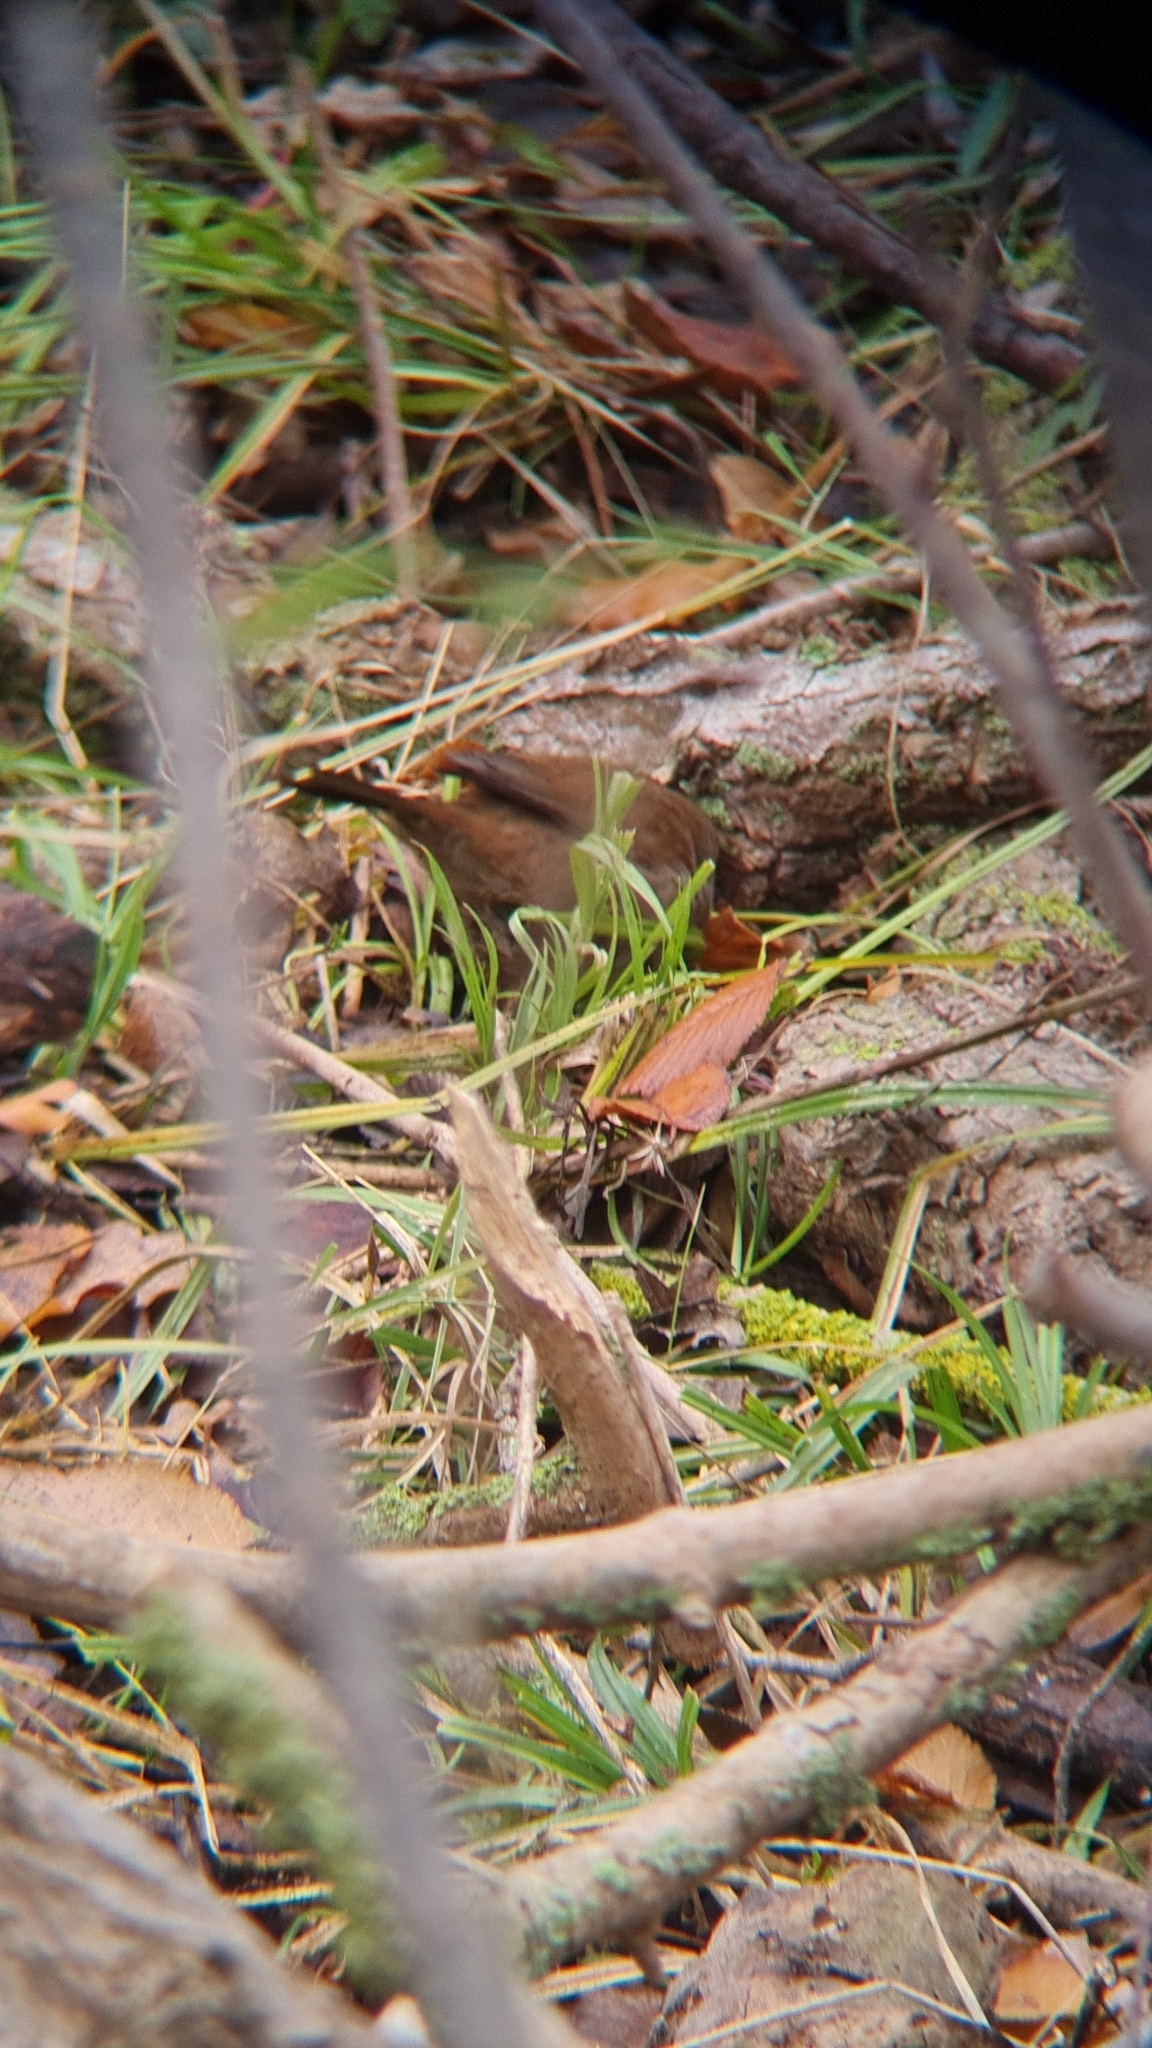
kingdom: Animalia
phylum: Chordata
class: Aves
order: Passeriformes
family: Cettiidae
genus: Cettia
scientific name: Cettia cetti
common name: Cetti's warbler
